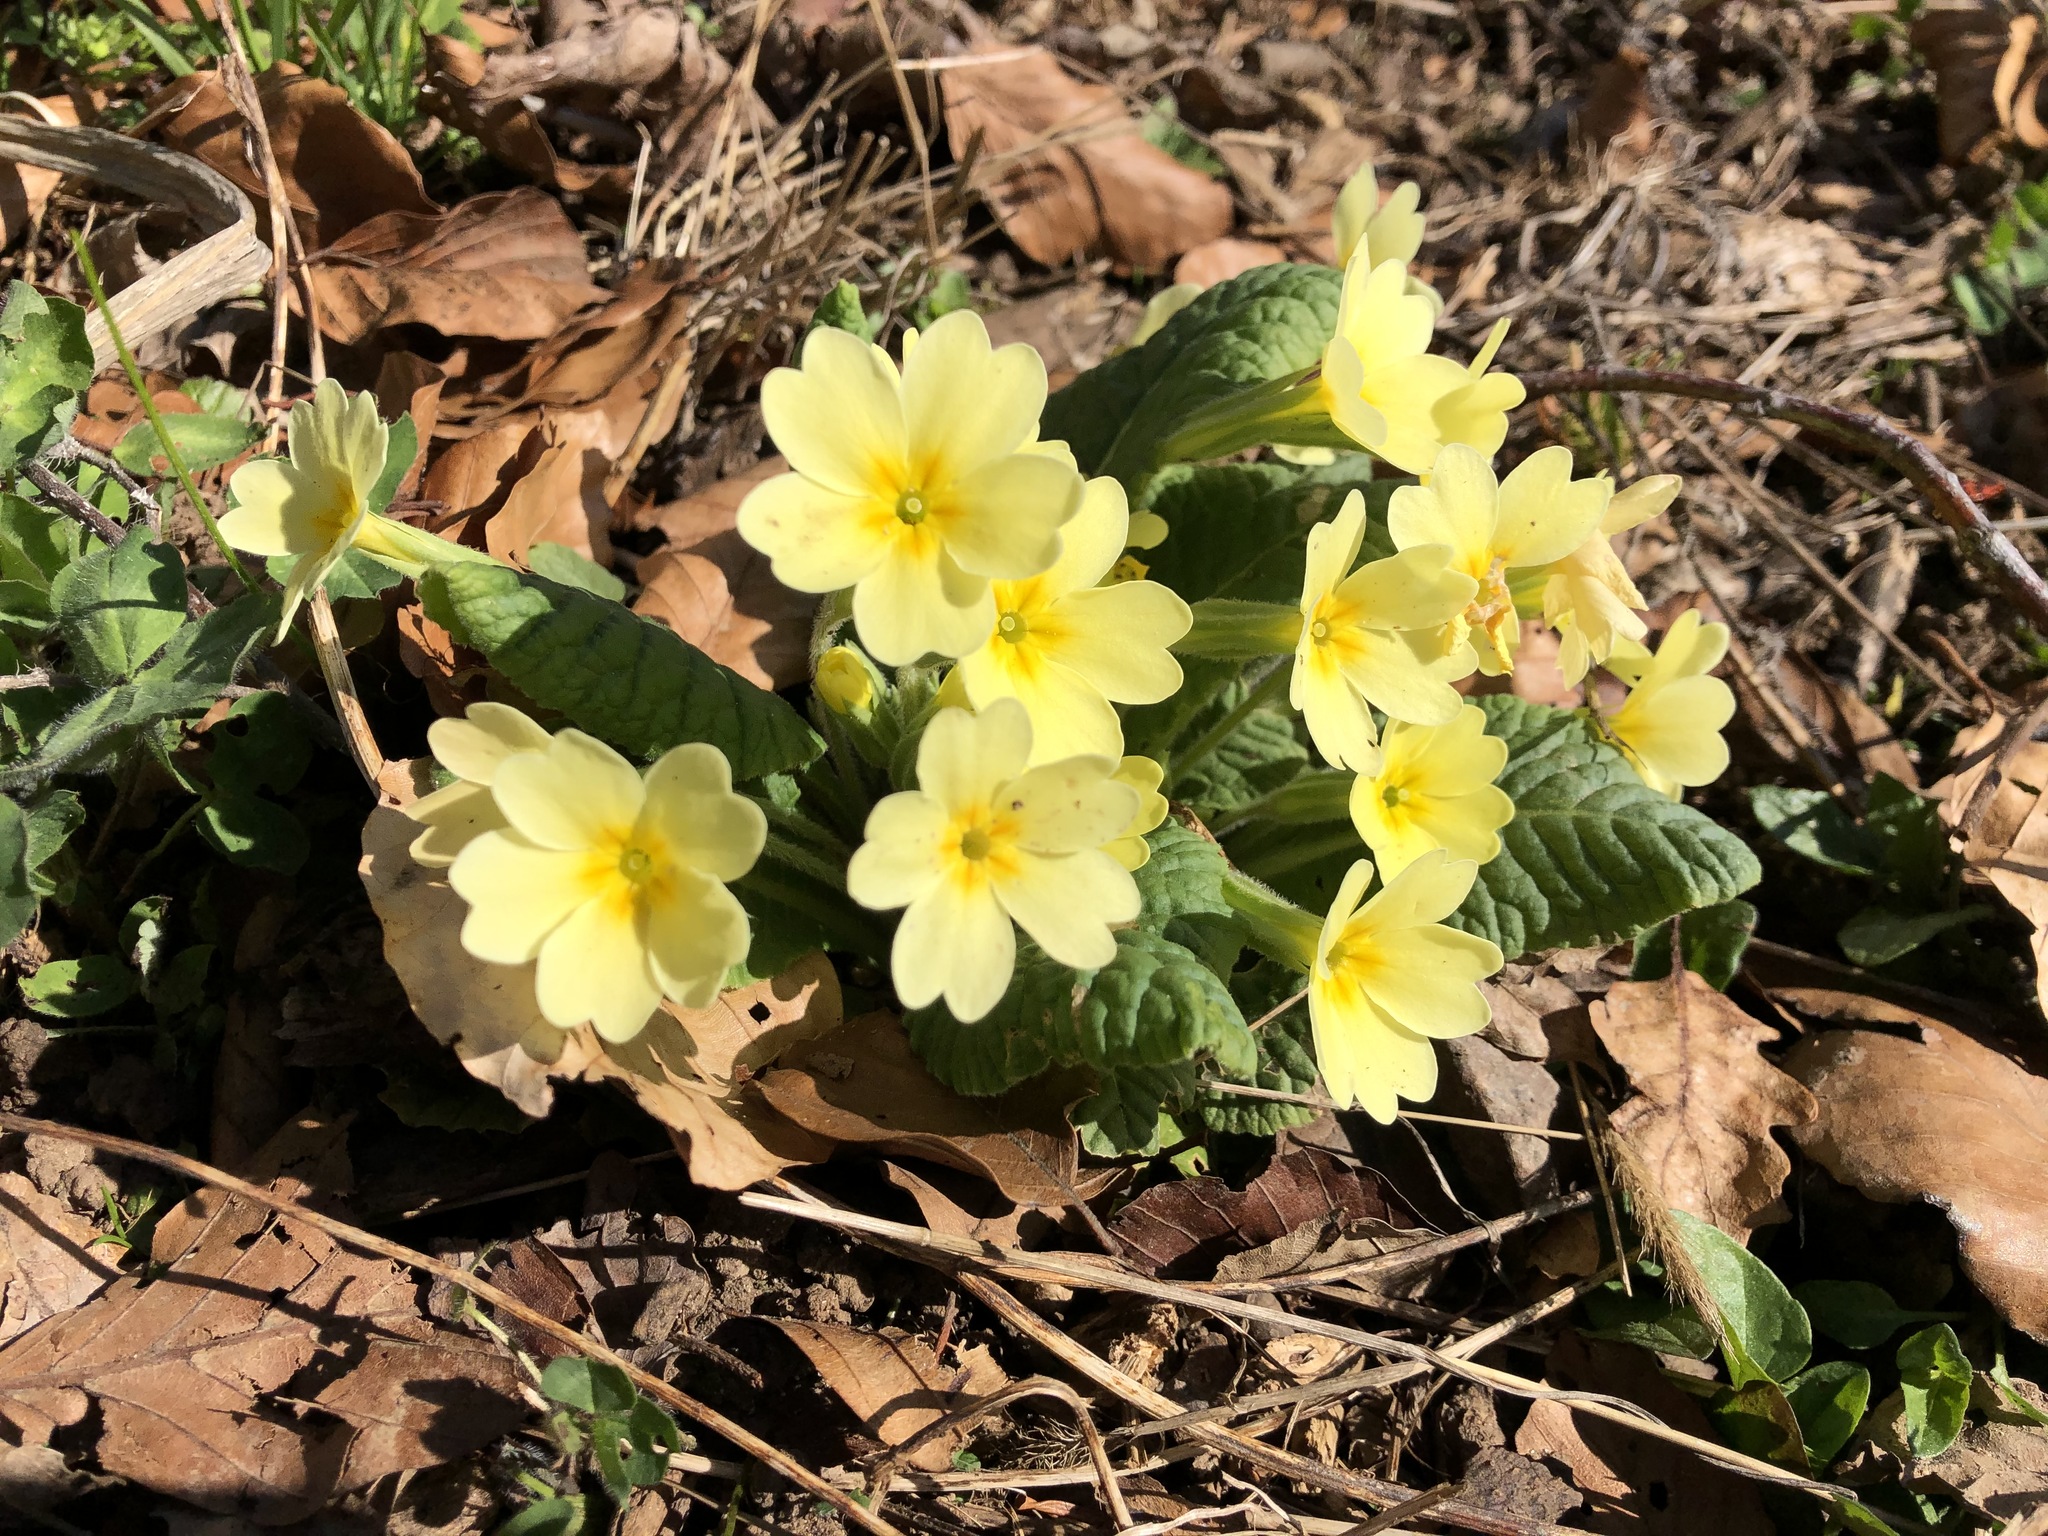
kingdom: Plantae
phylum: Tracheophyta
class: Magnoliopsida
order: Ericales
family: Primulaceae
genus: Primula
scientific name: Primula vulgaris
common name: Primrose
